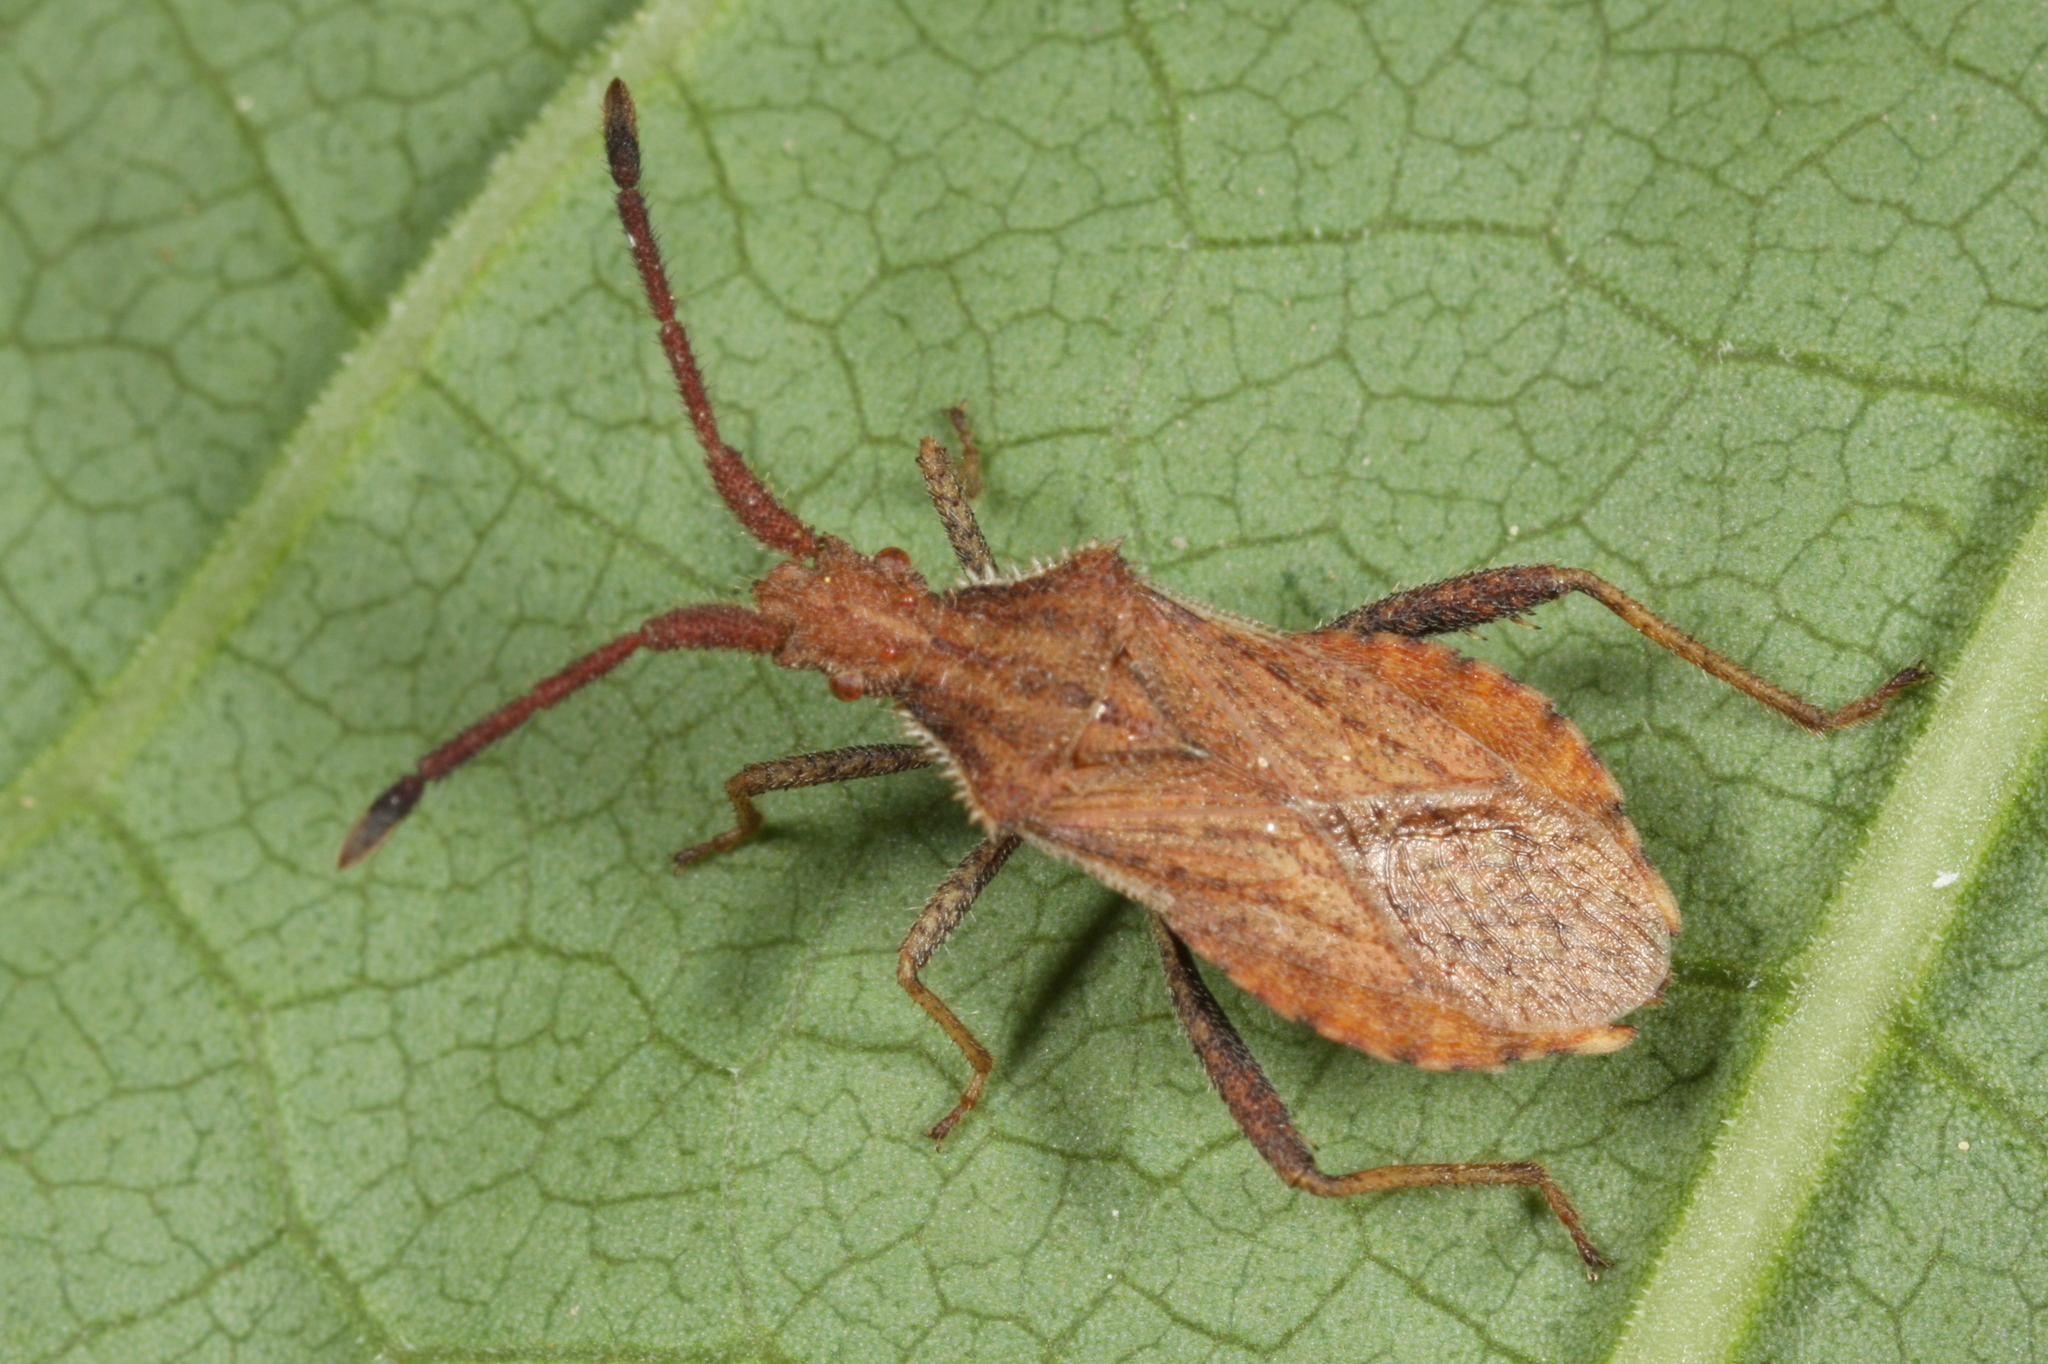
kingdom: Animalia
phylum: Arthropoda
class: Insecta
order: Hemiptera
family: Coreidae
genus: Coriomeris
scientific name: Coriomeris denticulatus
